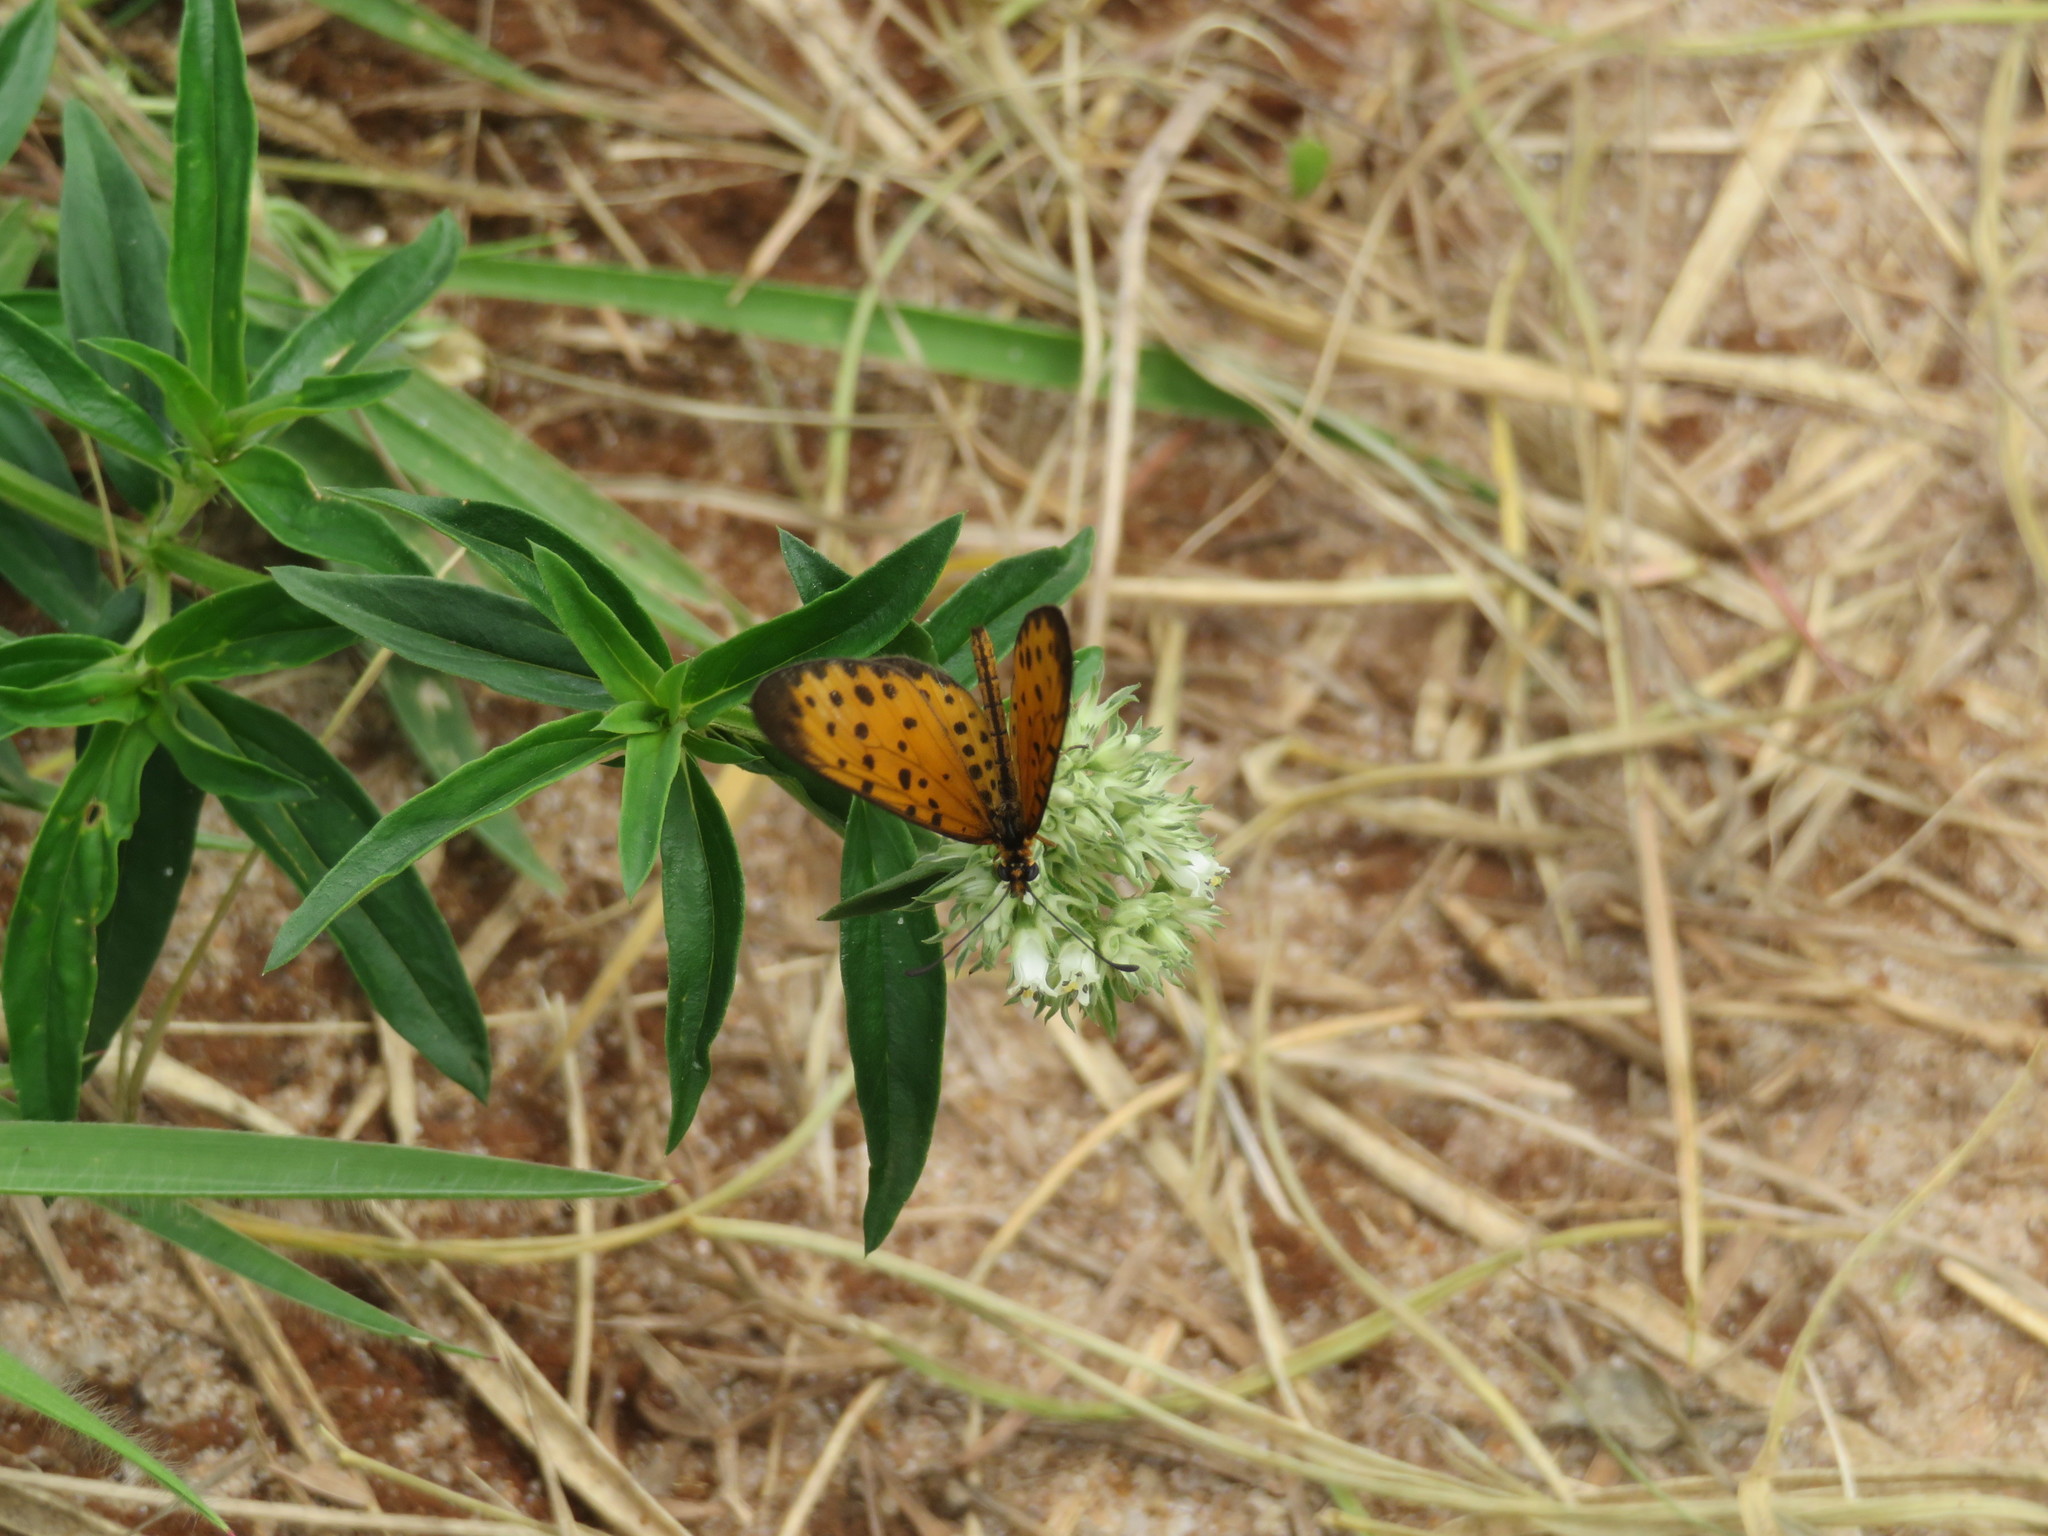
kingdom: Animalia
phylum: Arthropoda
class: Insecta
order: Lepidoptera
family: Nymphalidae
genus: Pardopsis
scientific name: Pardopsis punctatissima
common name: Polka dot
